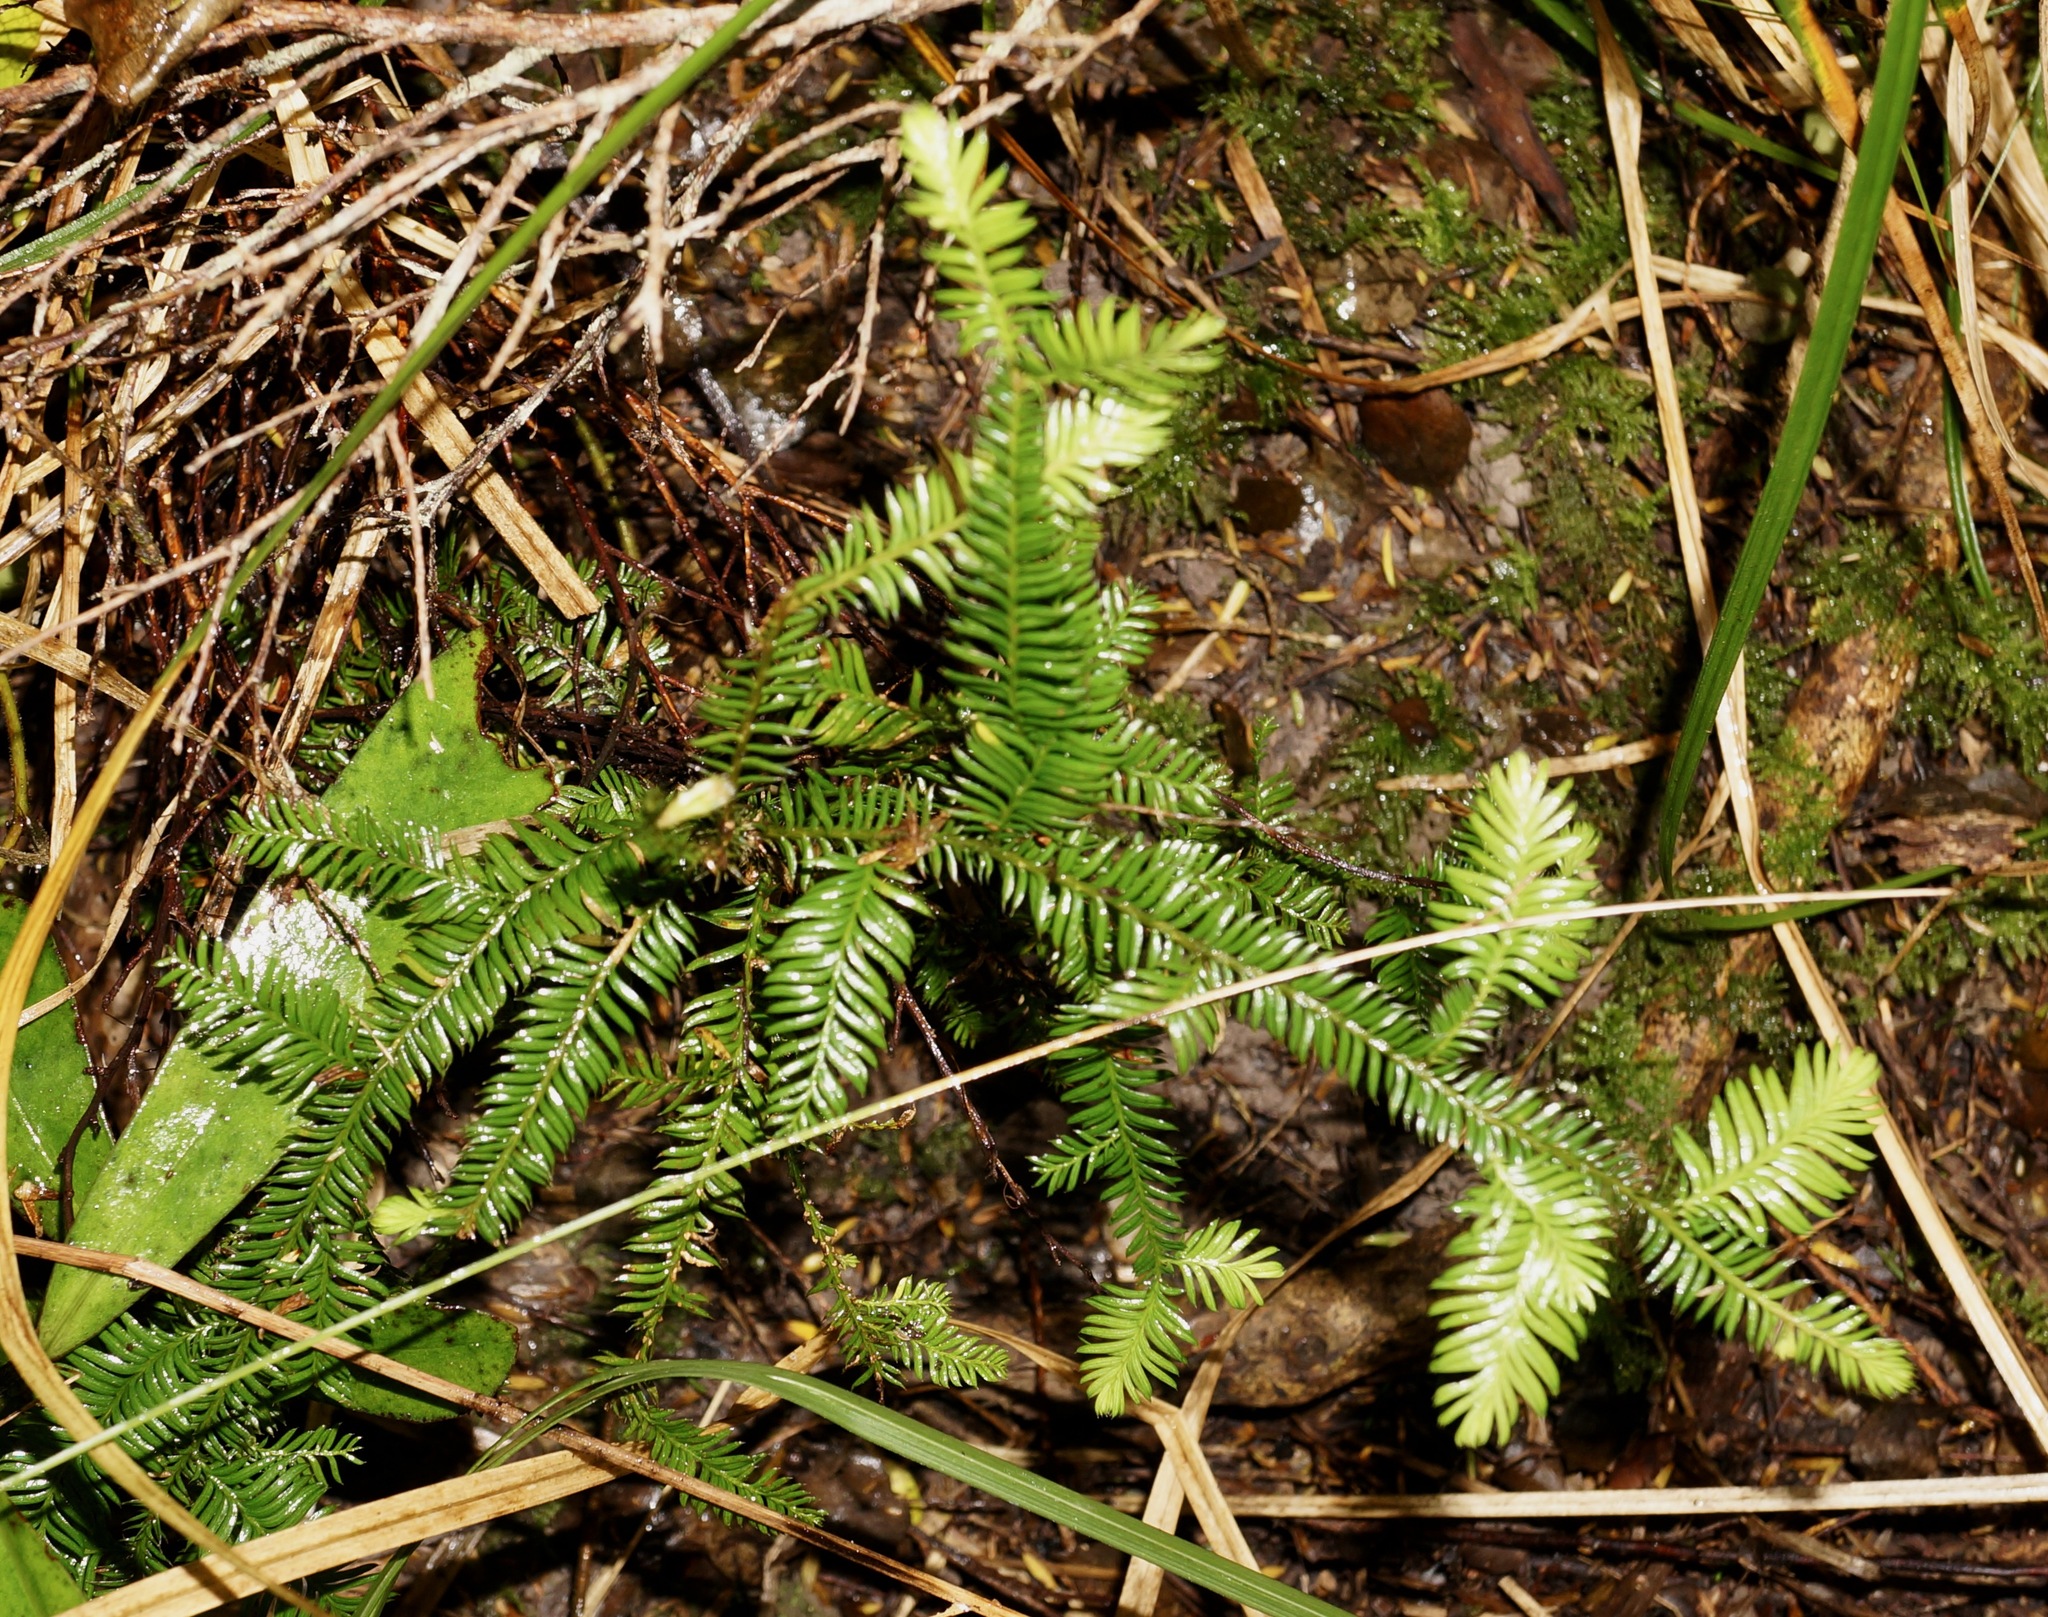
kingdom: Plantae
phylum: Tracheophyta
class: Pinopsida
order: Pinales
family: Podocarpaceae
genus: Dacrycarpus
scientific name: Dacrycarpus dacrydioides
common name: White pine
